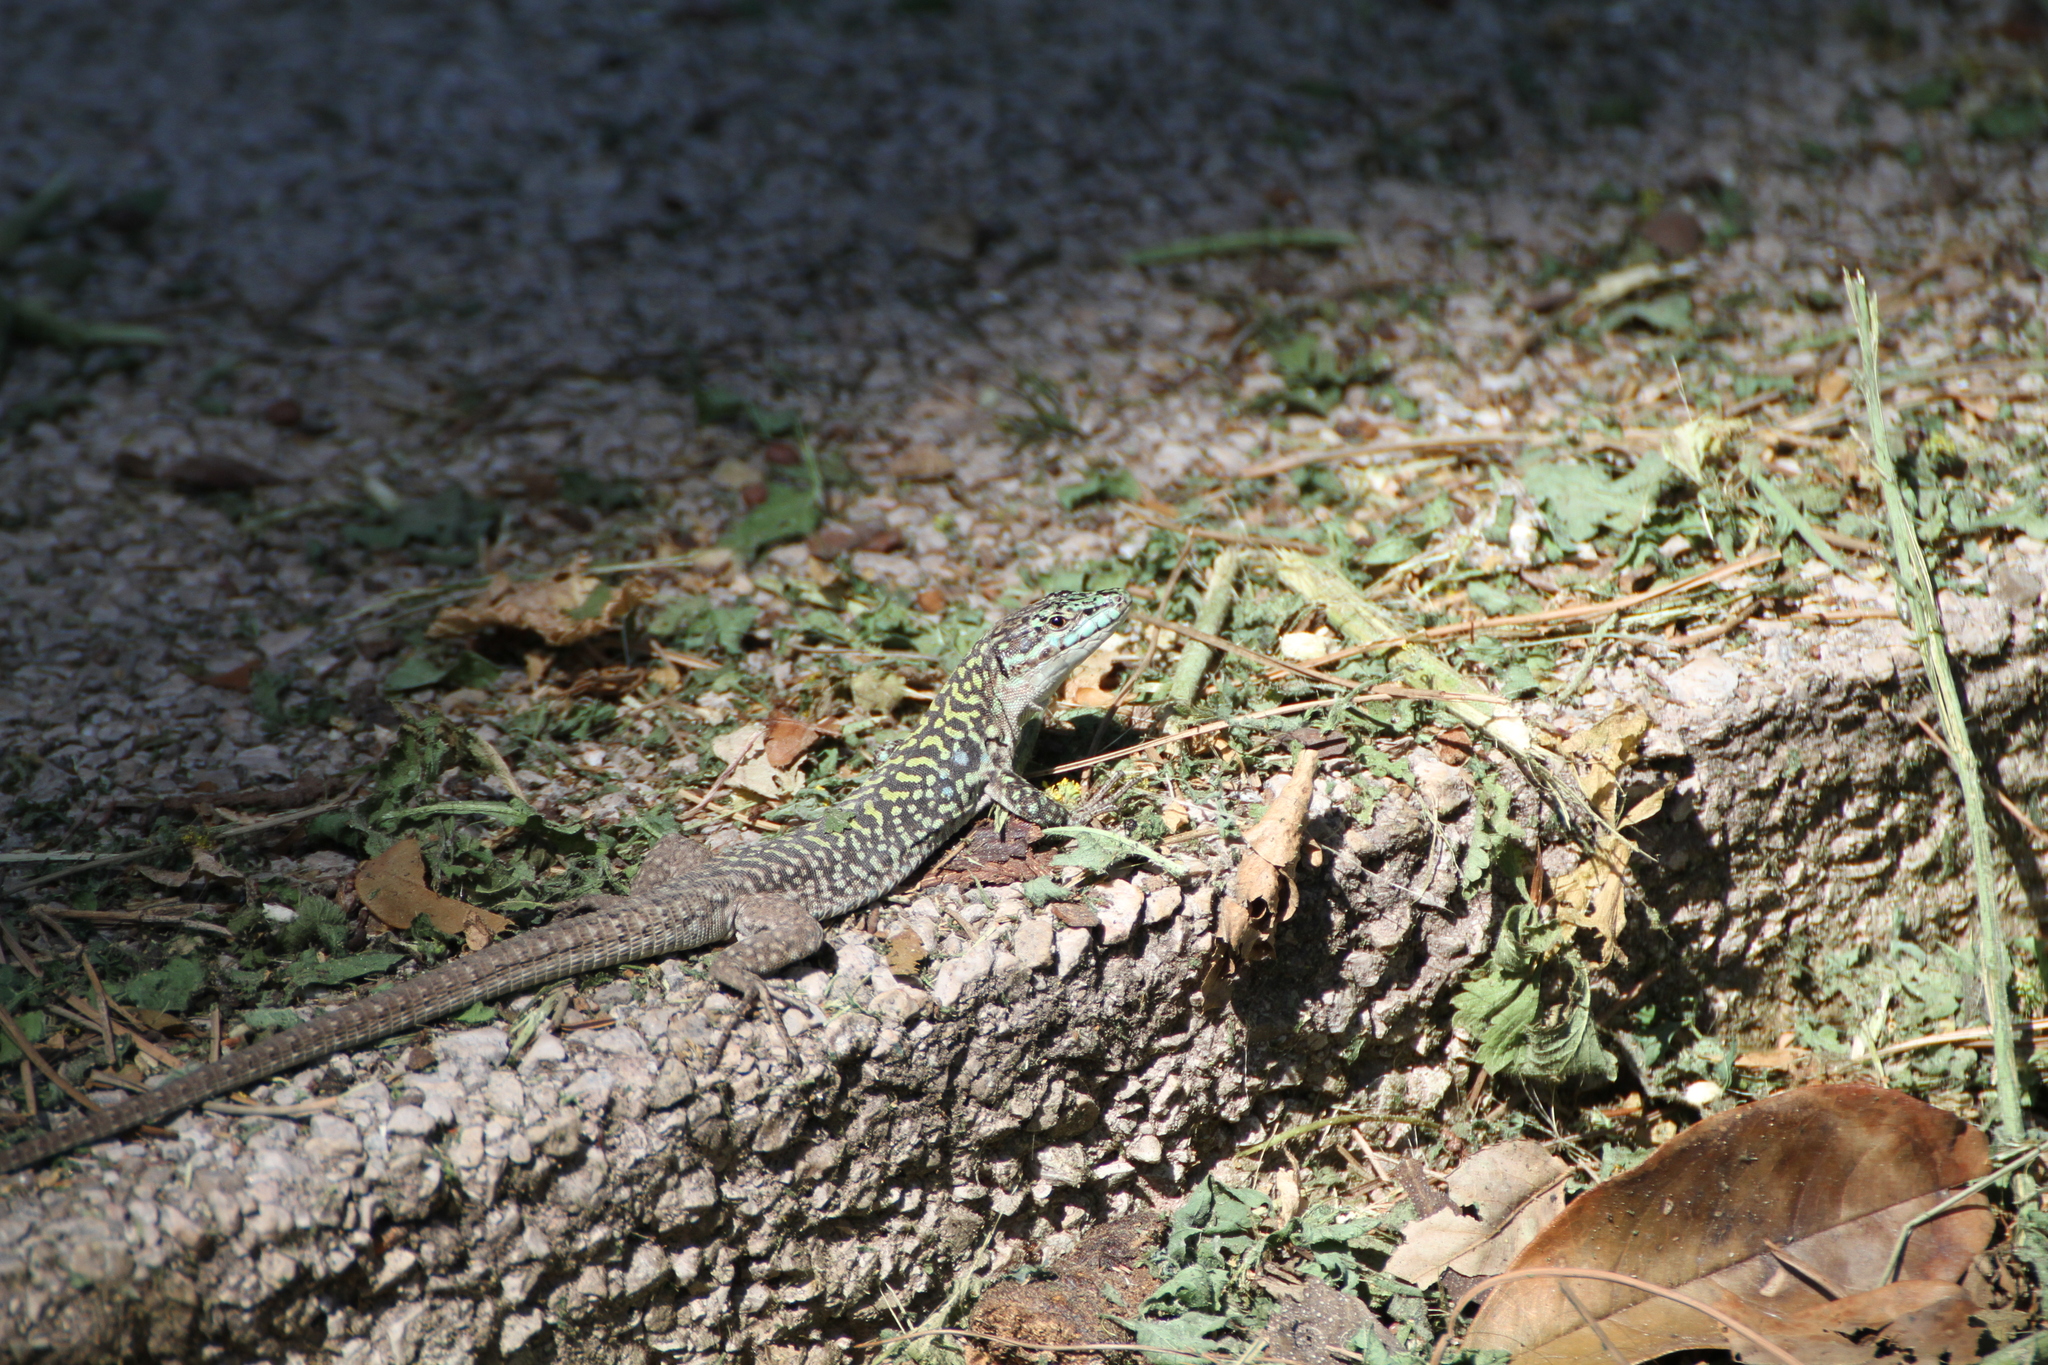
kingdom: Animalia
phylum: Chordata
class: Squamata
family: Lacertidae
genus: Podarcis
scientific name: Podarcis siculus
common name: Italian wall lizard
